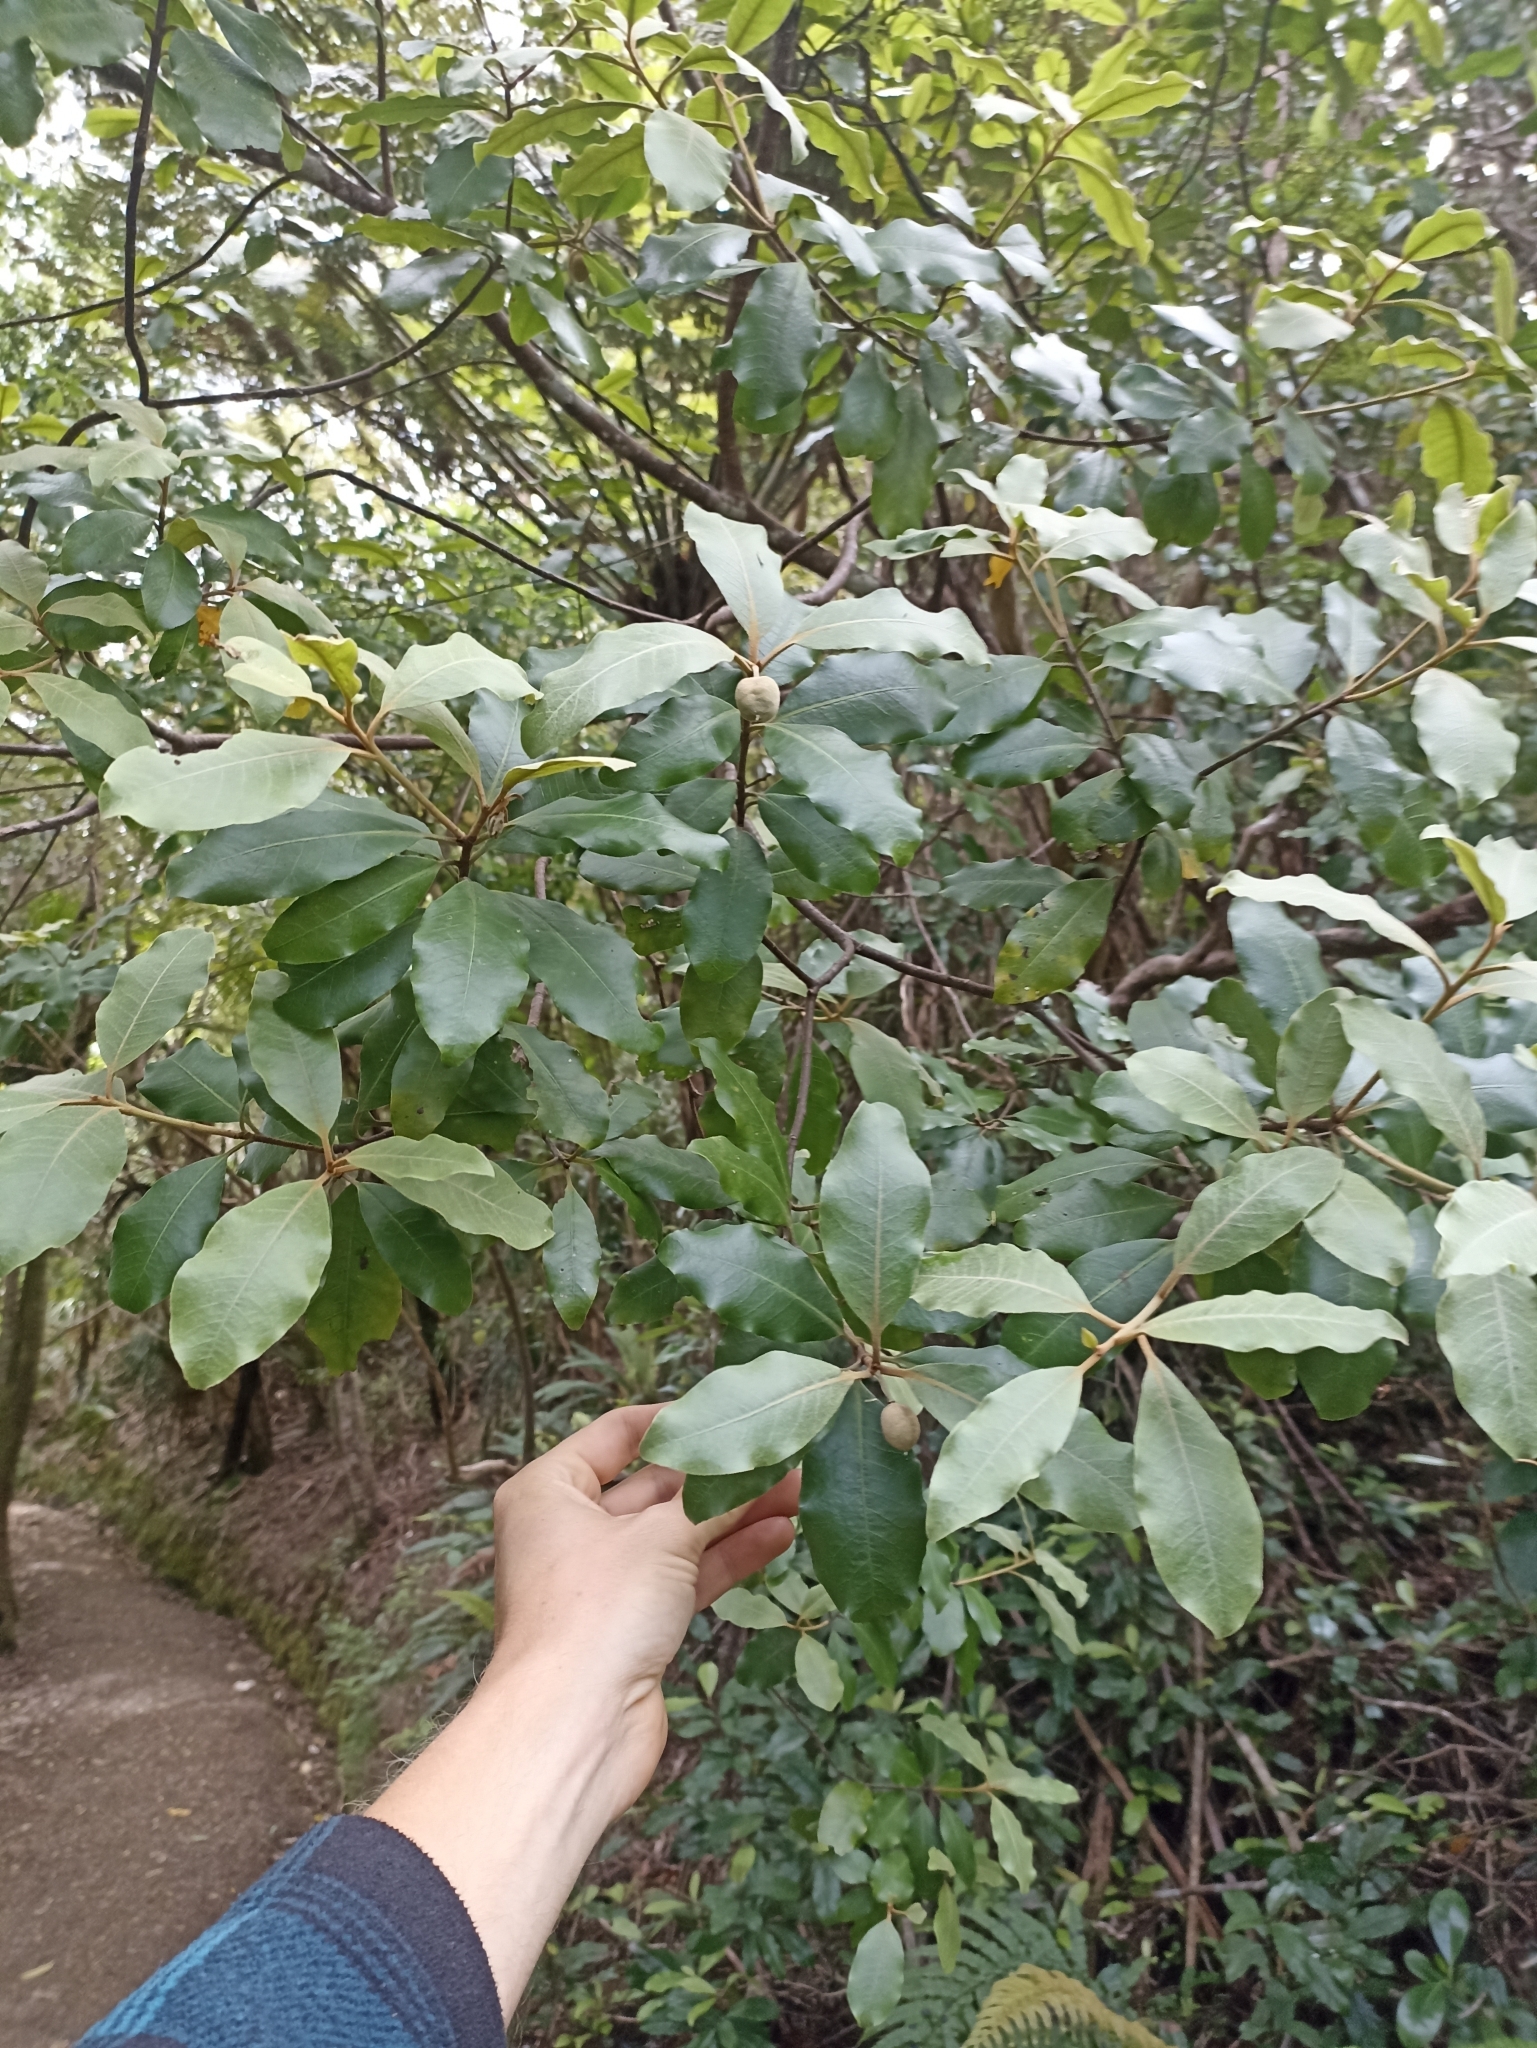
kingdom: Plantae
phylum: Tracheophyta
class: Magnoliopsida
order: Apiales
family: Pittosporaceae
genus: Pittosporum
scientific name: Pittosporum ellipticum
